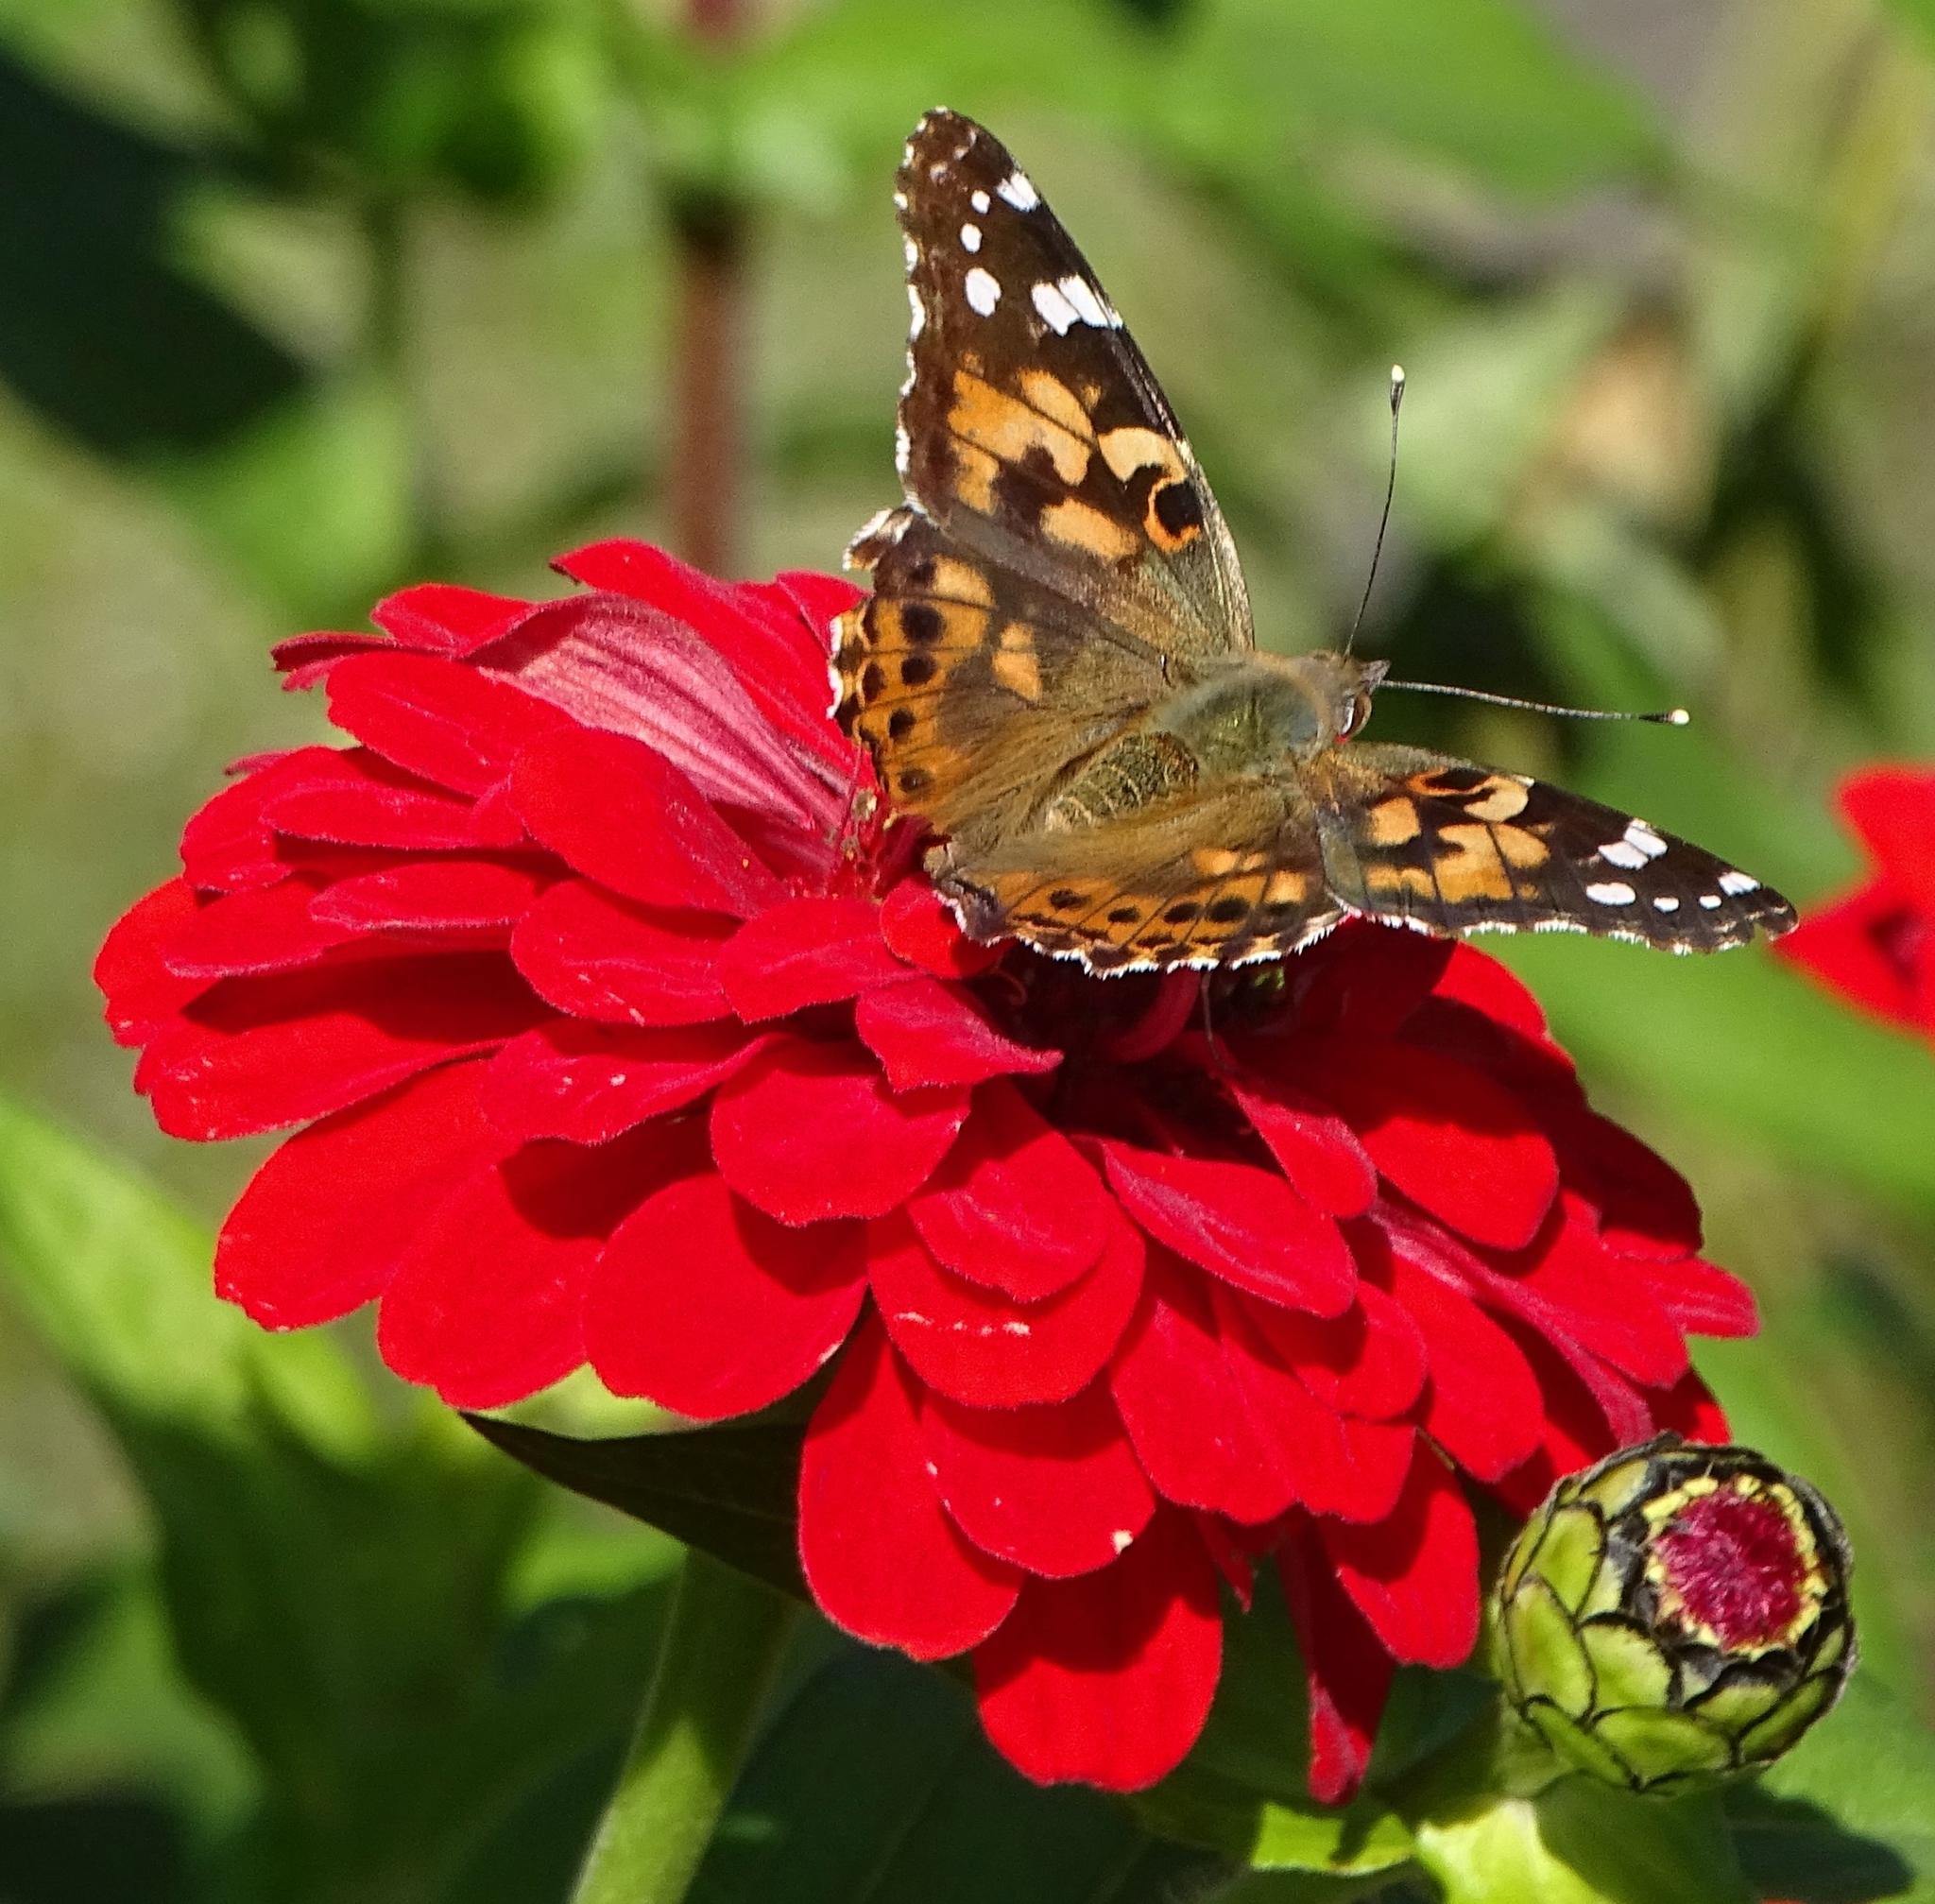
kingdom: Animalia
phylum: Arthropoda
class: Insecta
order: Lepidoptera
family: Nymphalidae
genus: Vanessa
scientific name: Vanessa cardui
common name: Painted lady
